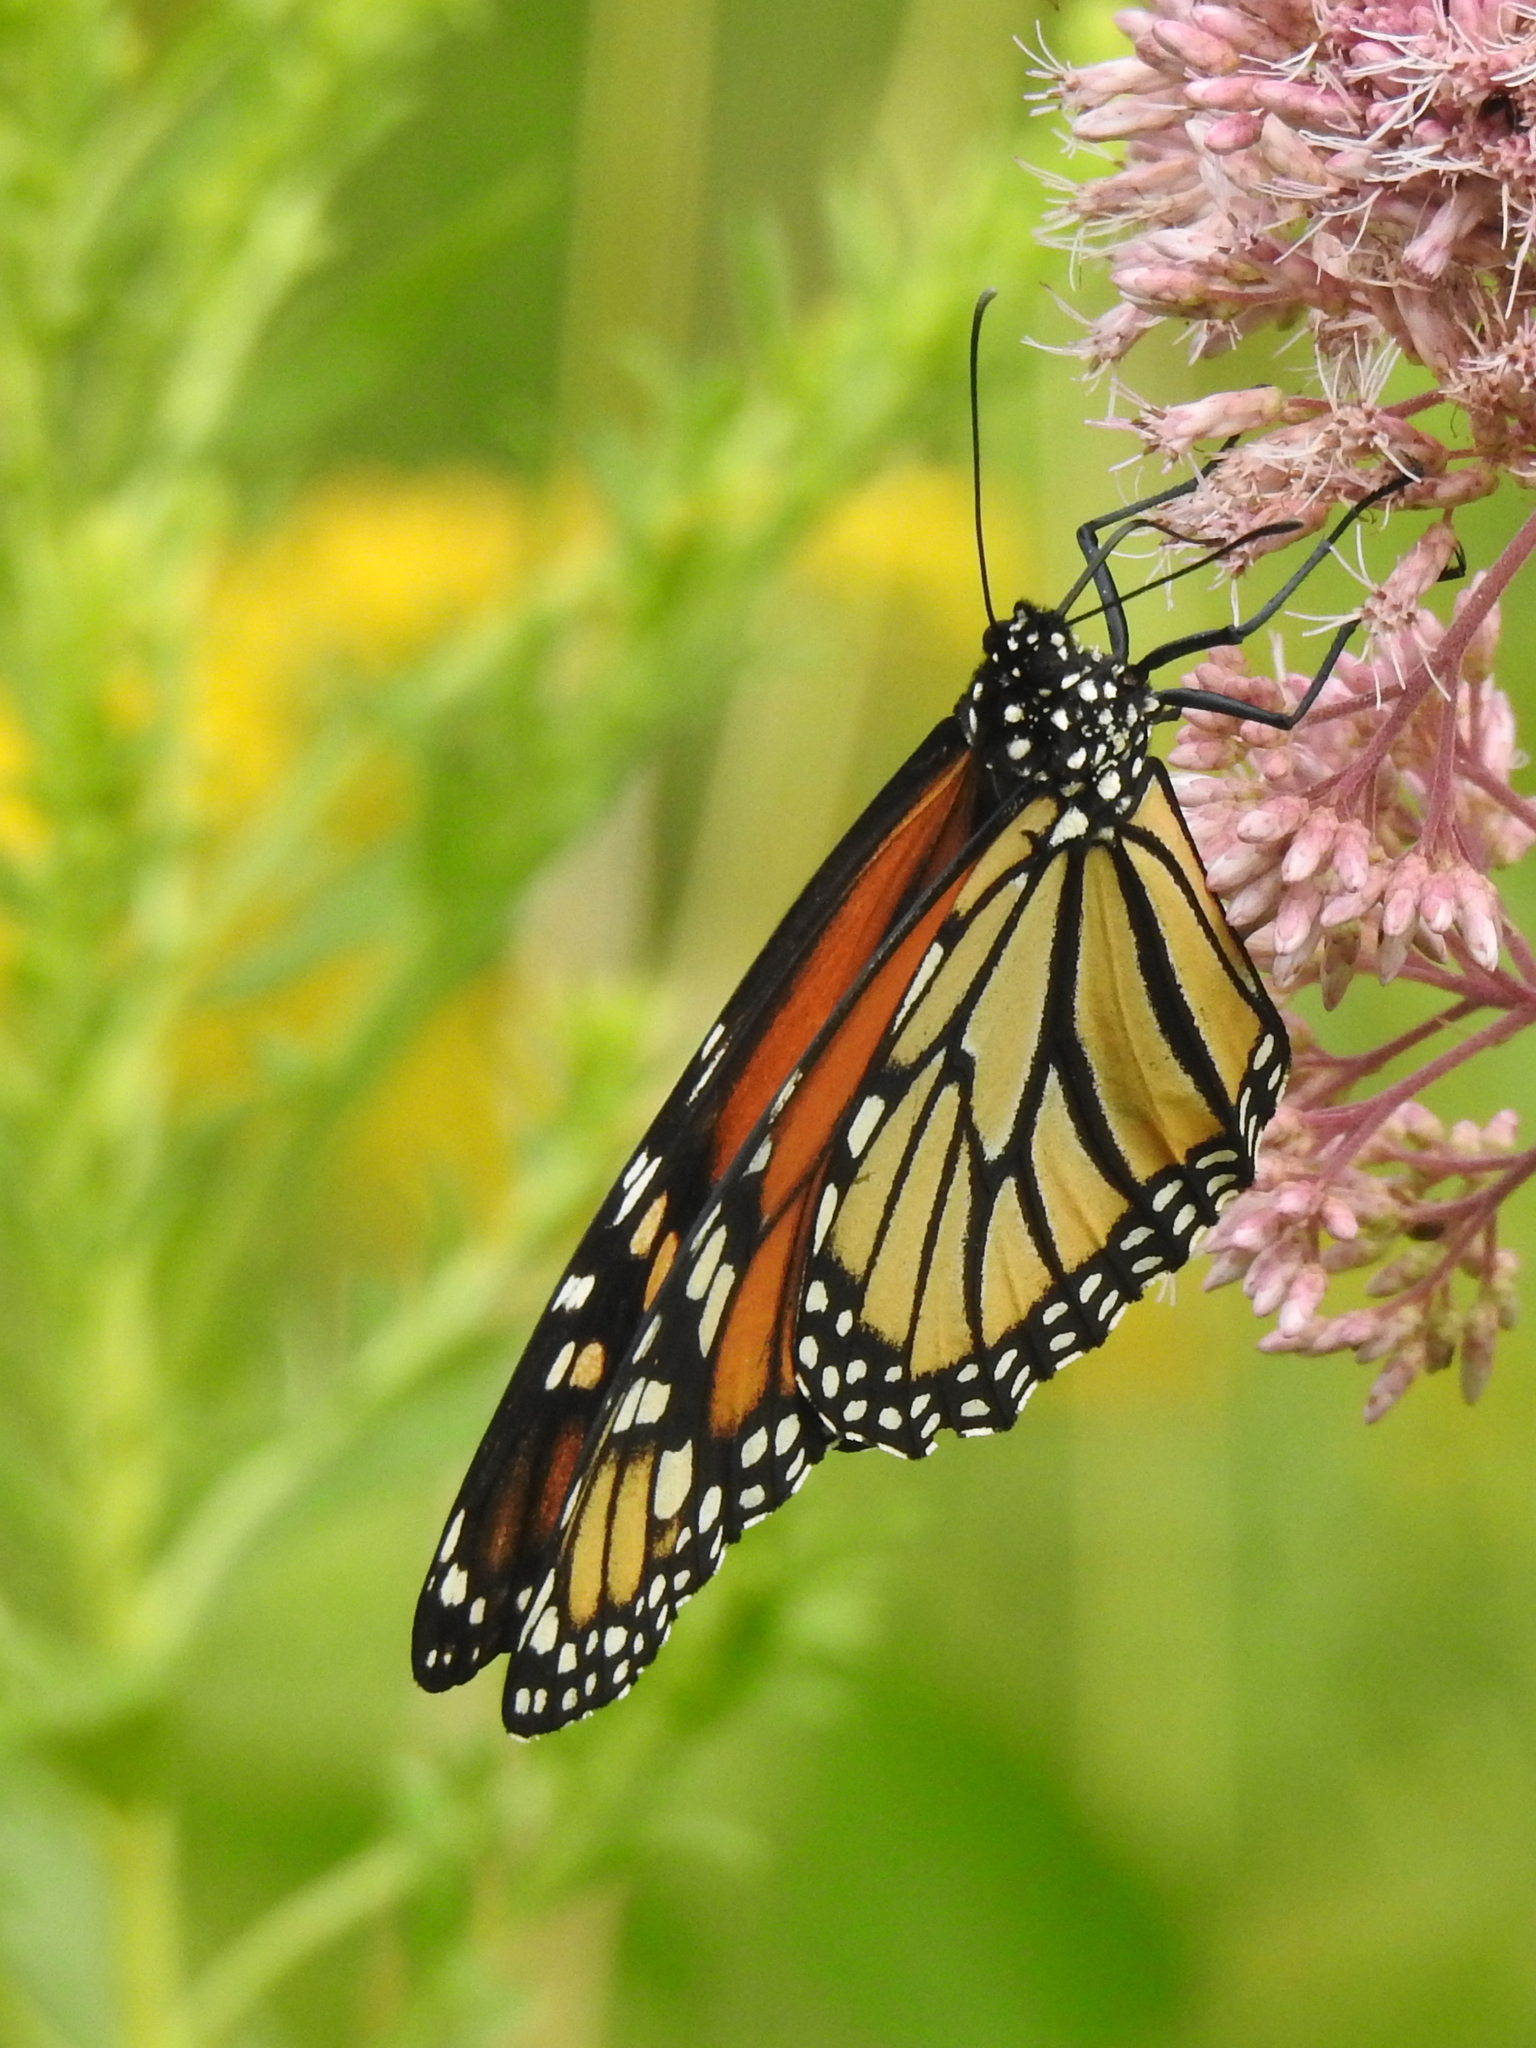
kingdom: Animalia
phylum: Arthropoda
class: Insecta
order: Lepidoptera
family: Nymphalidae
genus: Danaus
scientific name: Danaus plexippus
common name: Monarch
